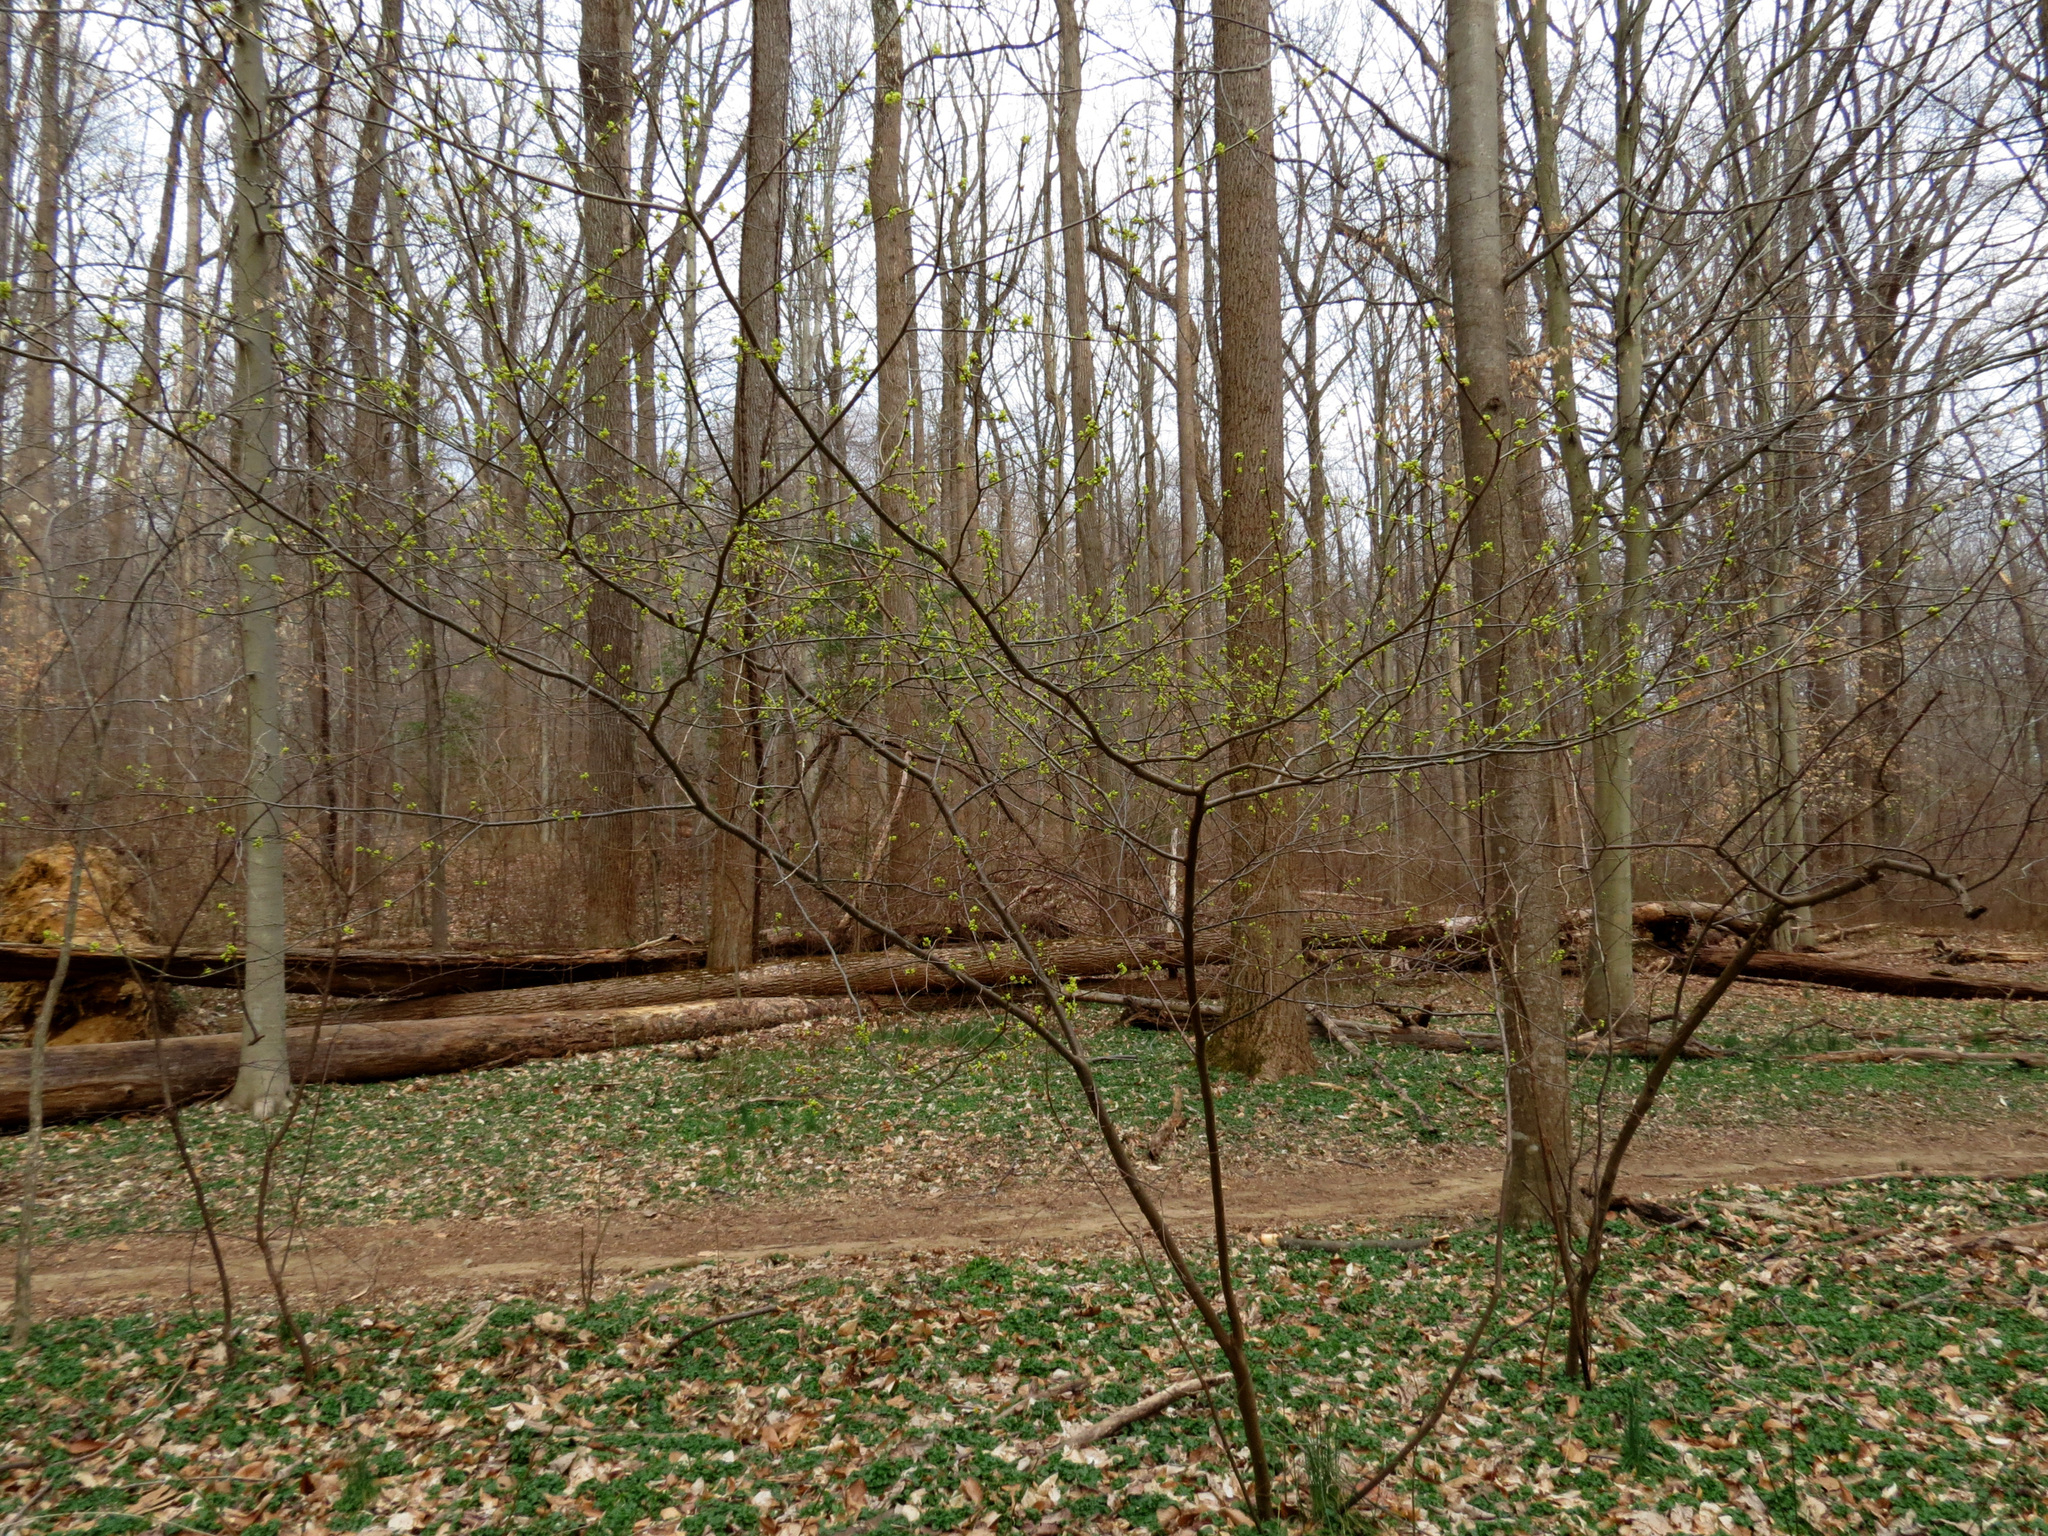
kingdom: Plantae
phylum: Tracheophyta
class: Magnoliopsida
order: Laurales
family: Lauraceae
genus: Lindera
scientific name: Lindera benzoin
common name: Spicebush
